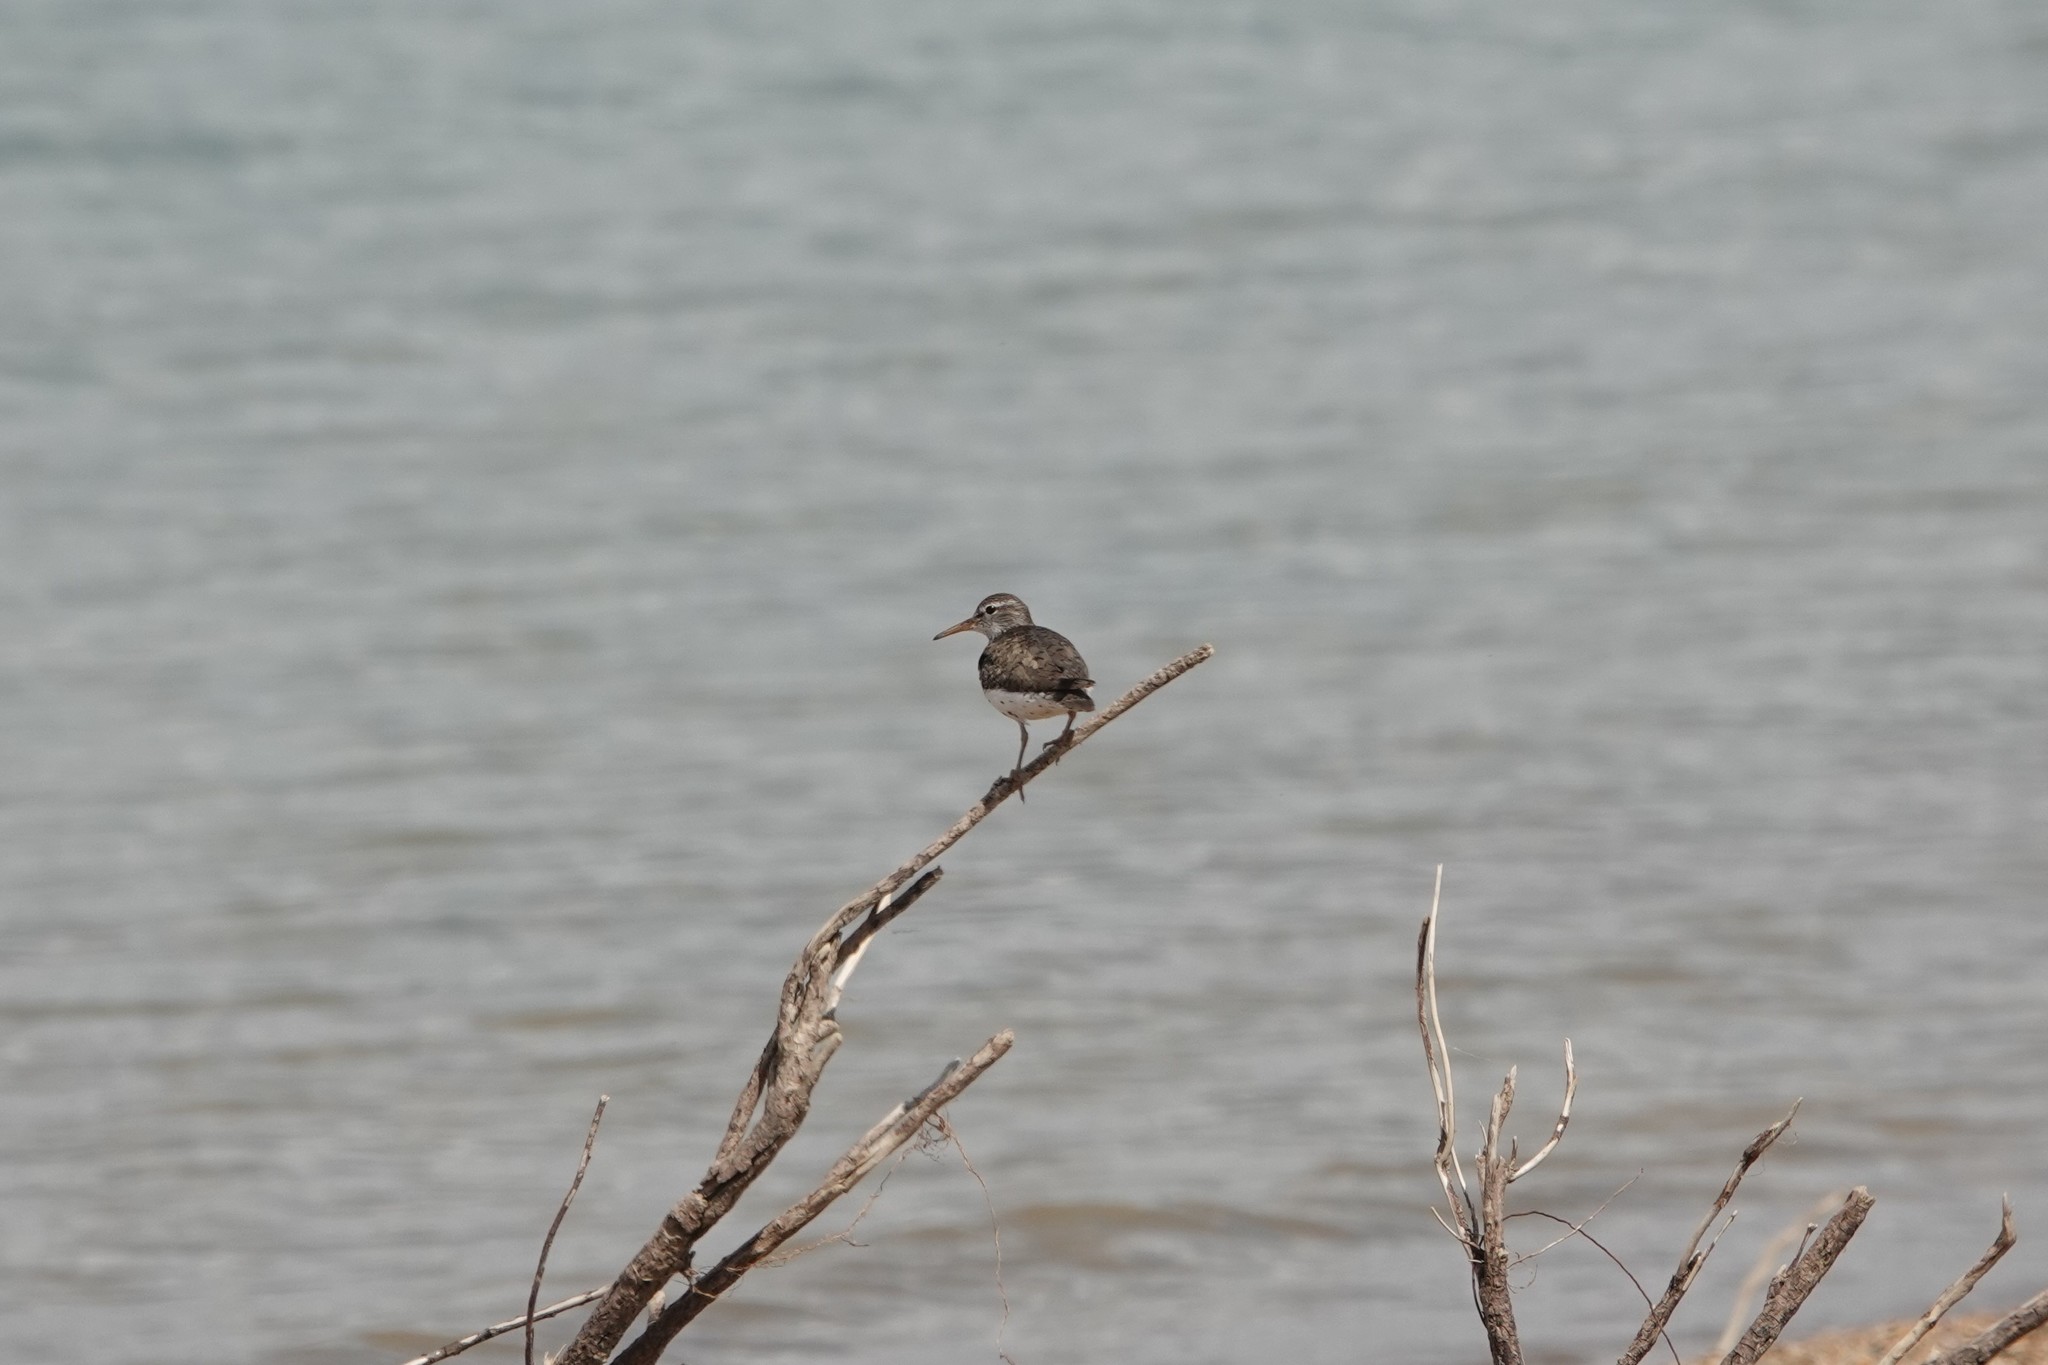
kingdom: Animalia
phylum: Chordata
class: Aves
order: Charadriiformes
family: Scolopacidae
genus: Actitis
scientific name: Actitis macularius
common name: Spotted sandpiper
